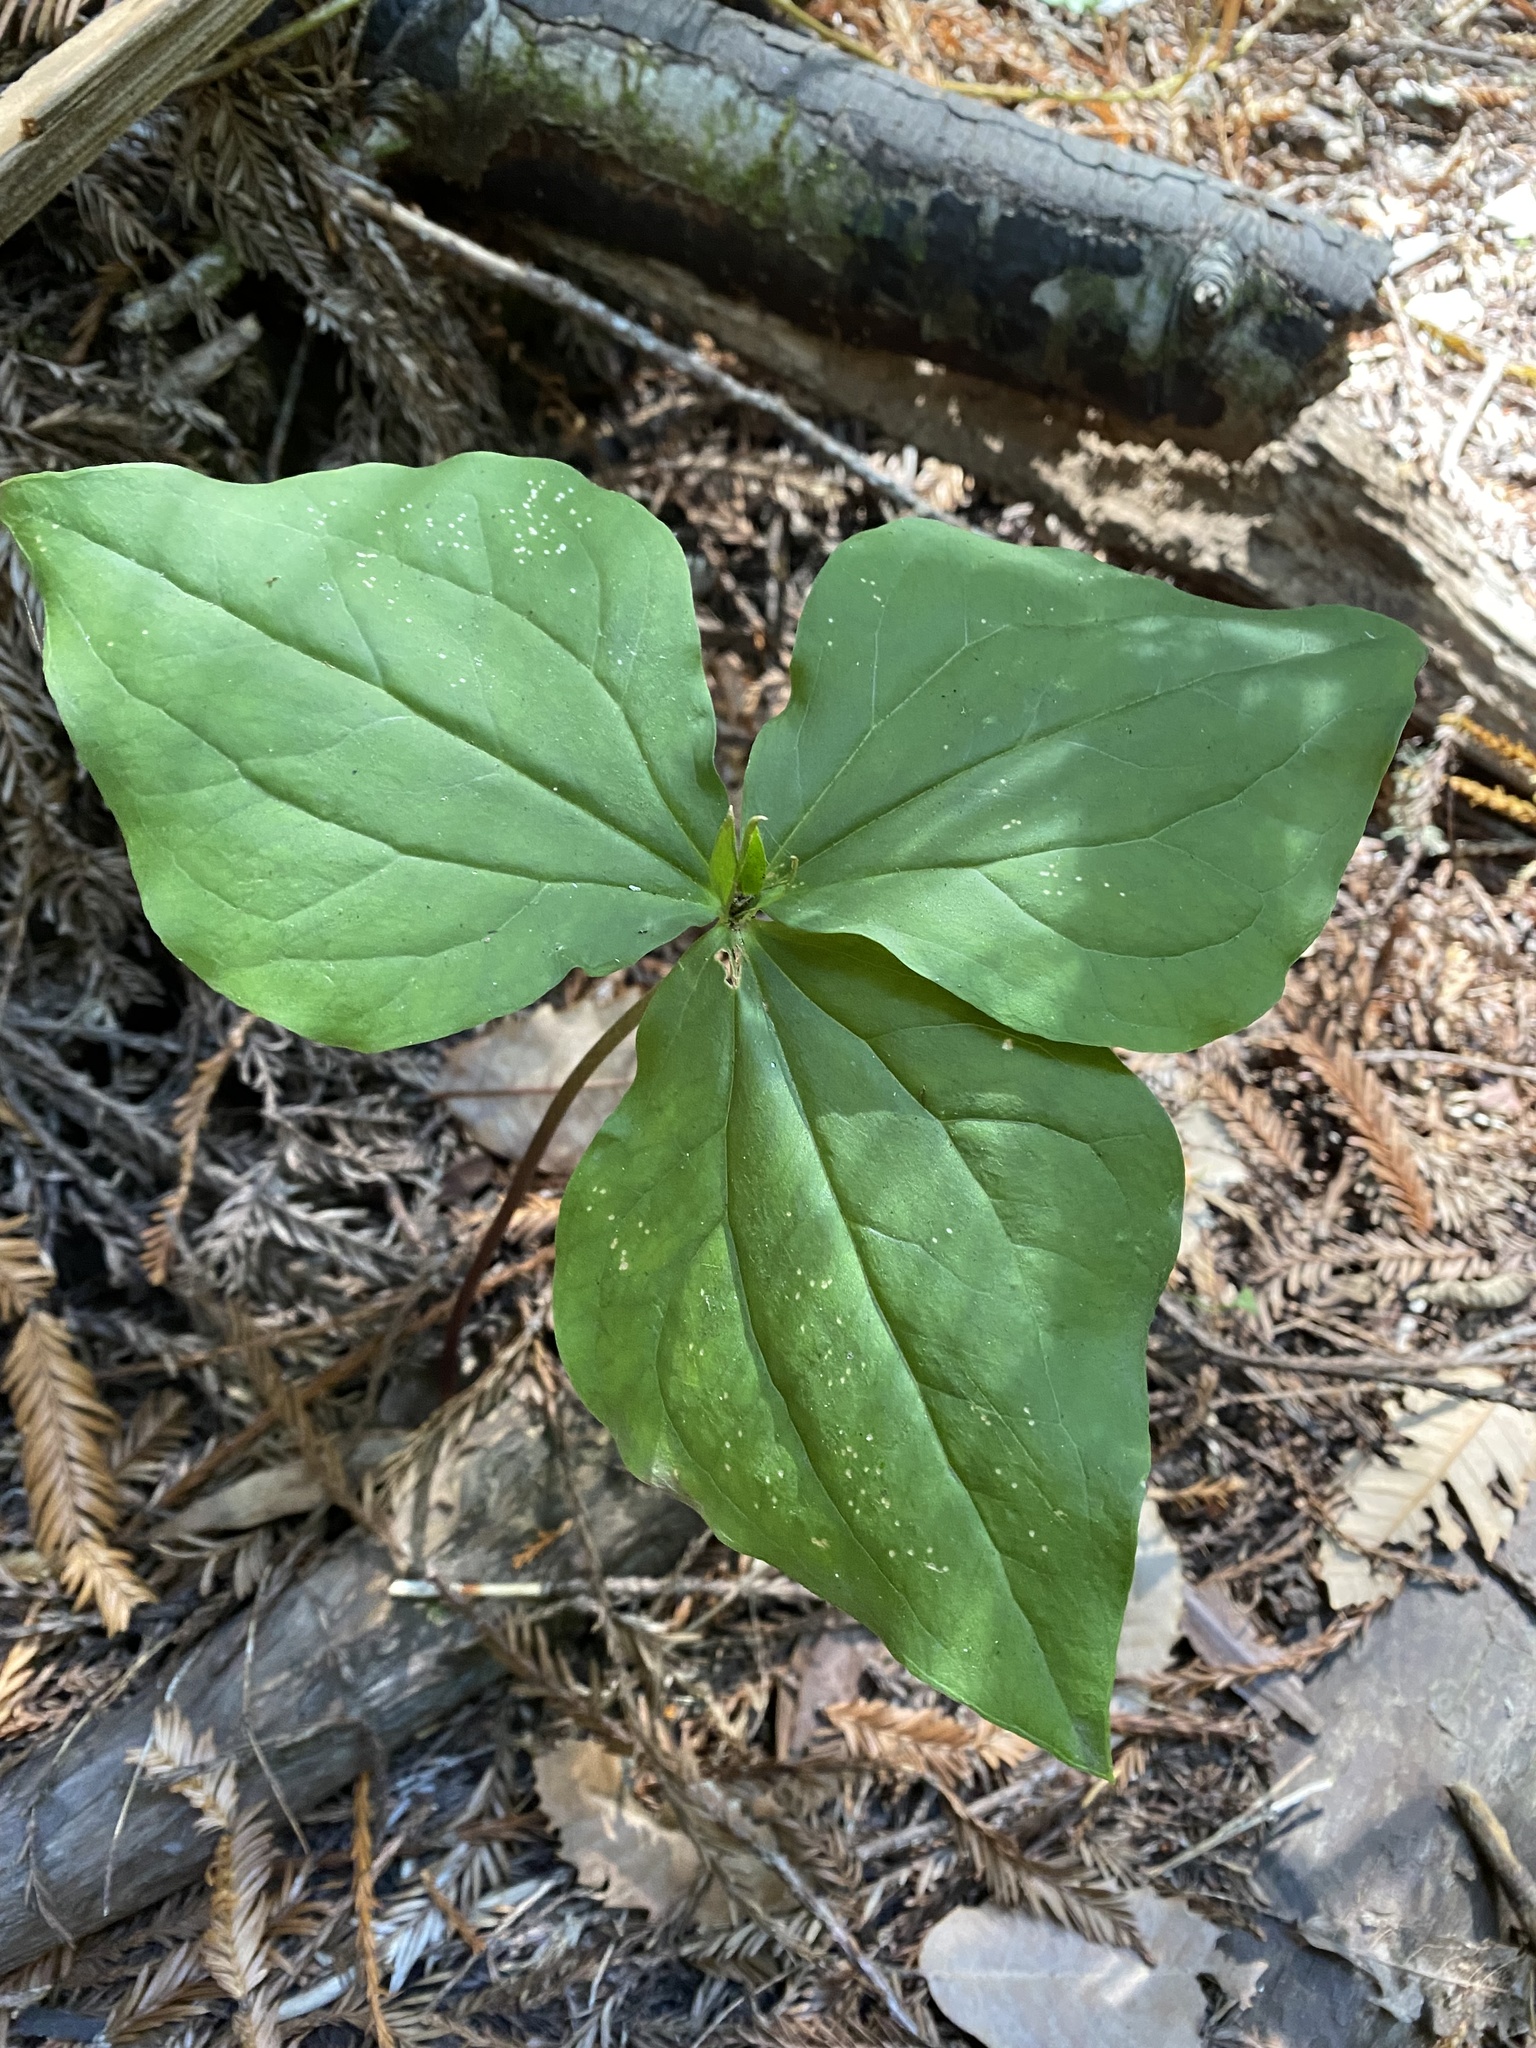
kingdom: Plantae
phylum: Tracheophyta
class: Liliopsida
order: Liliales
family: Melanthiaceae
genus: Trillium
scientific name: Trillium
